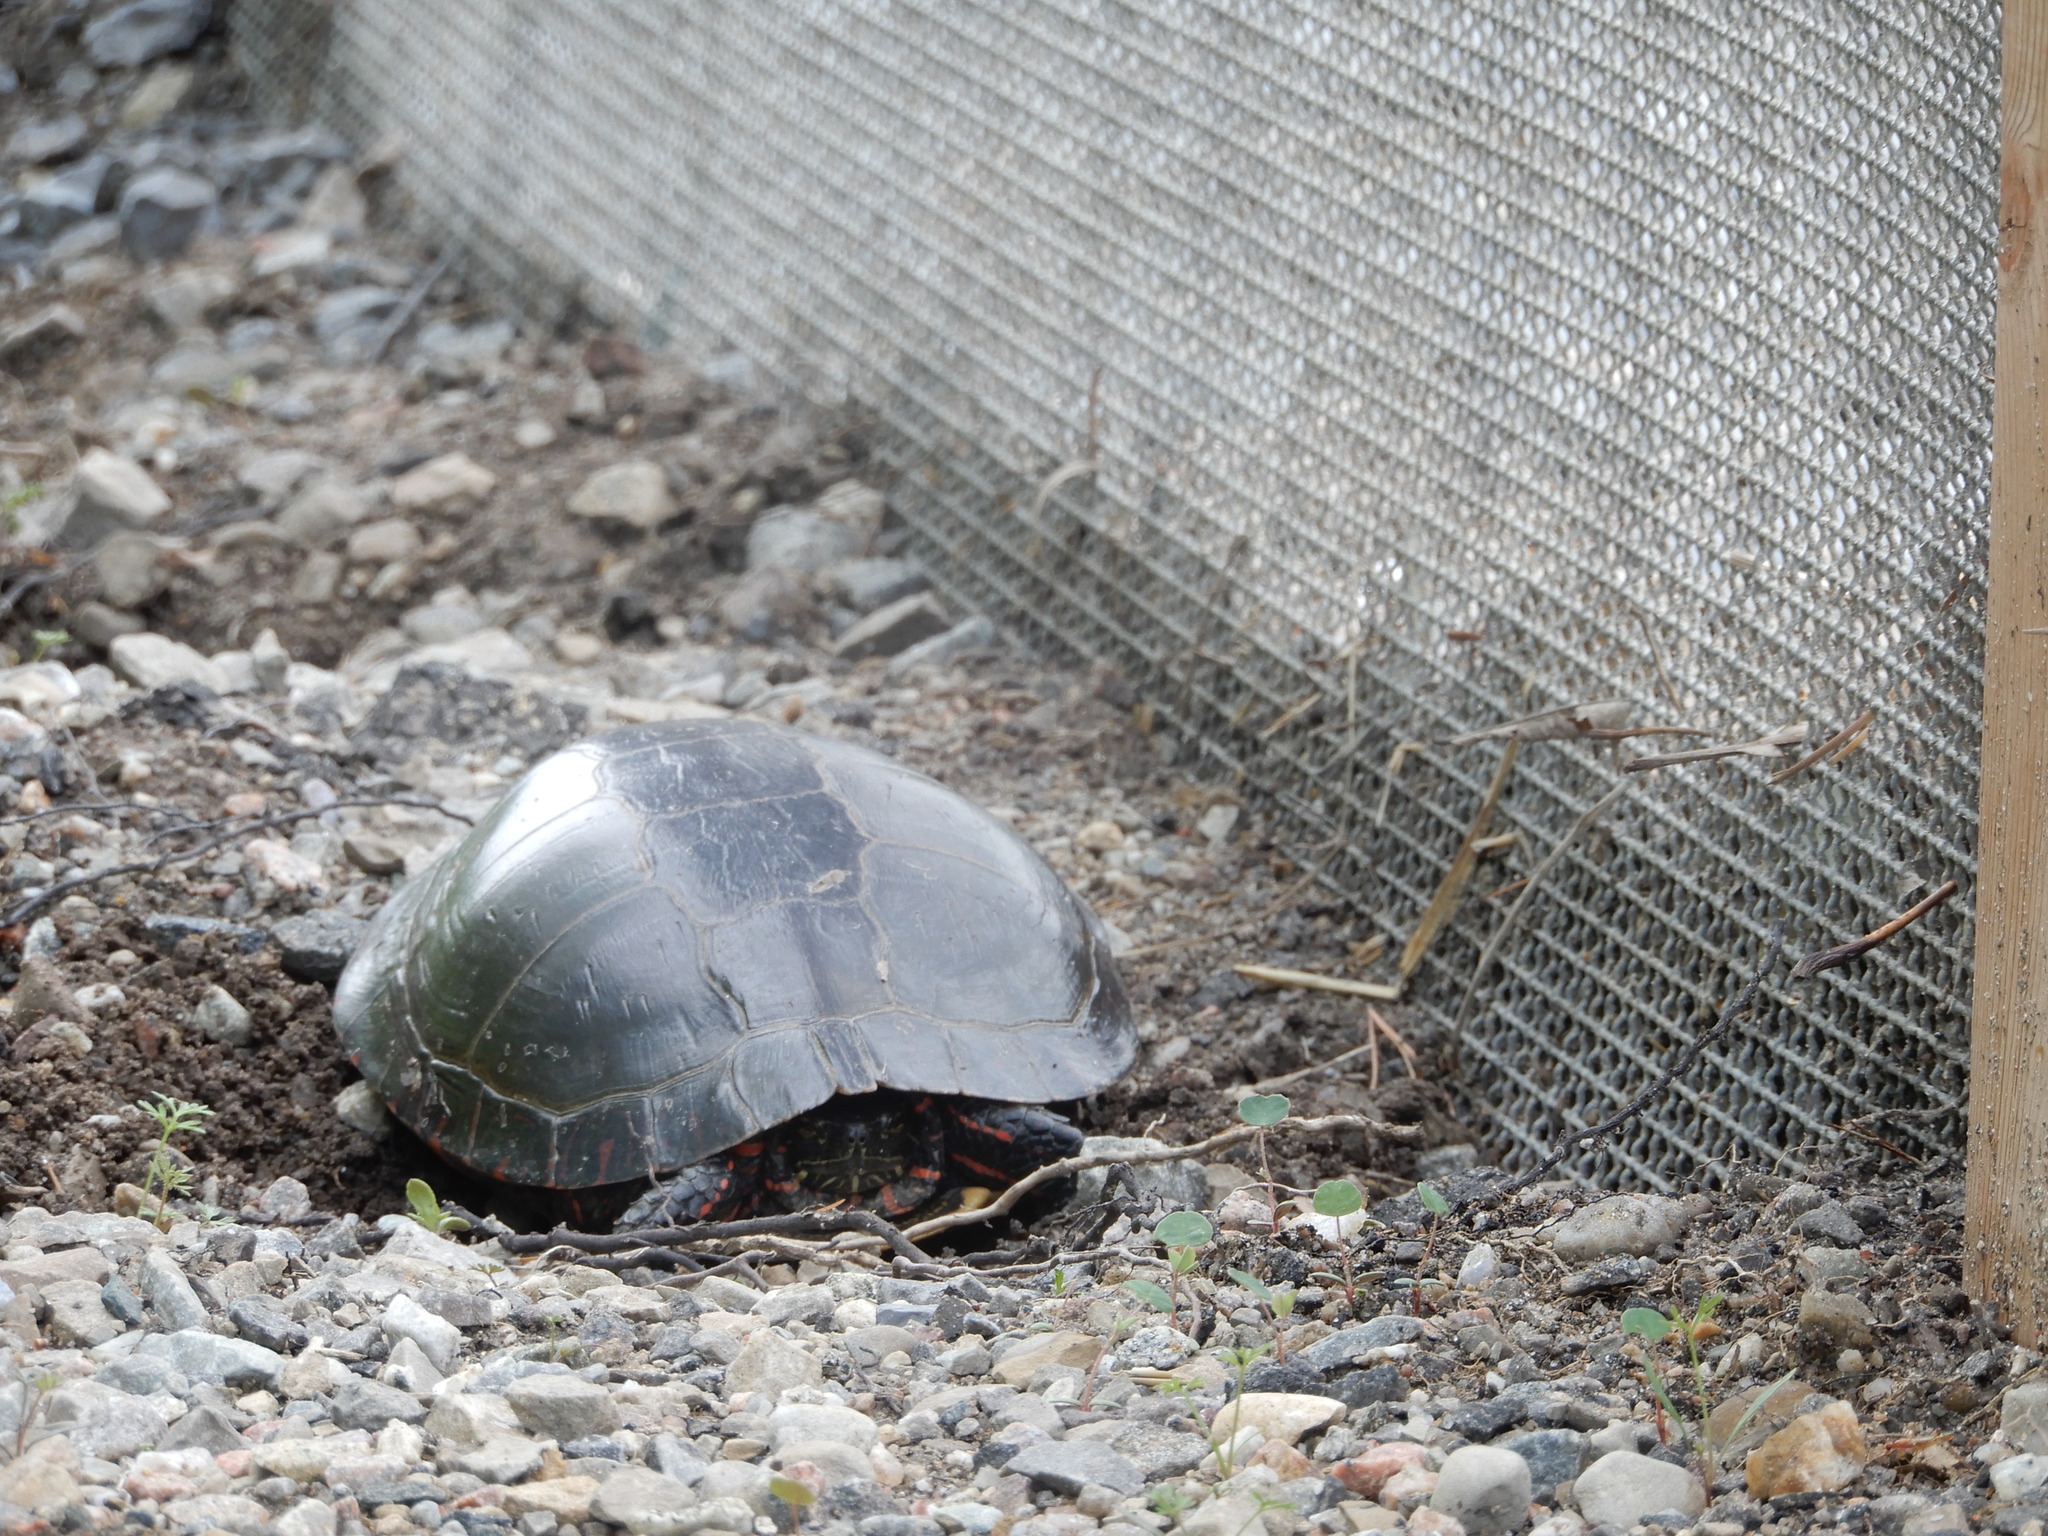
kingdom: Animalia
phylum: Chordata
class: Testudines
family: Emydidae
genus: Chrysemys
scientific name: Chrysemys picta
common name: Painted turtle
